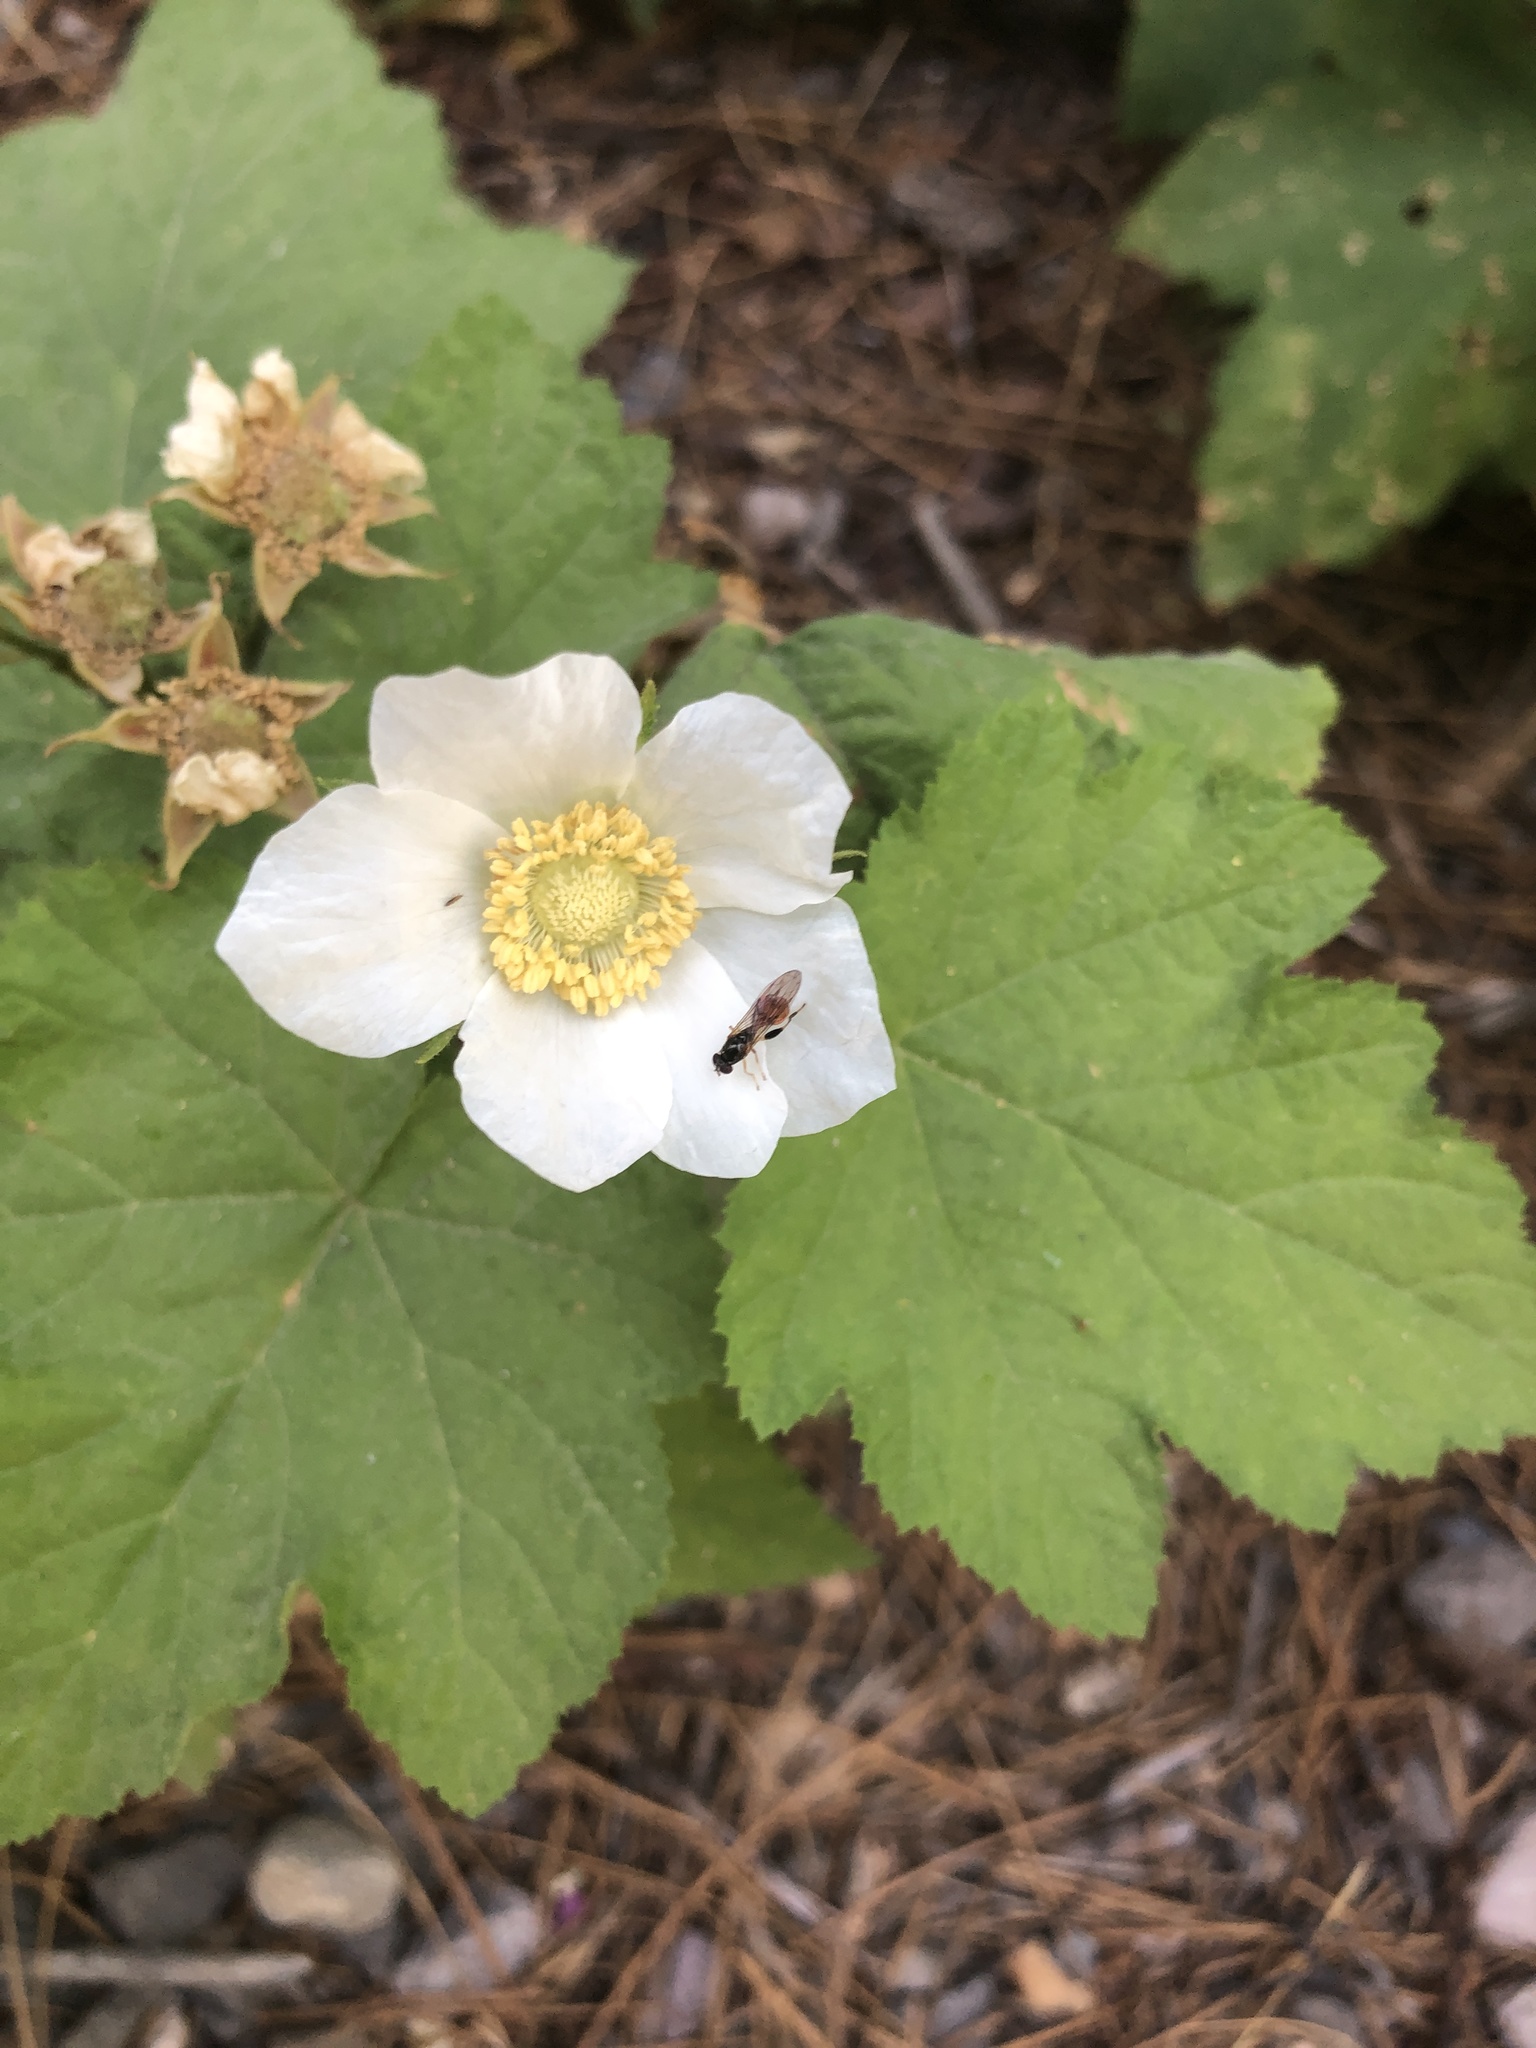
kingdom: Plantae
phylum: Tracheophyta
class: Magnoliopsida
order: Rosales
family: Rosaceae
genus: Rubus
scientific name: Rubus parviflorus
